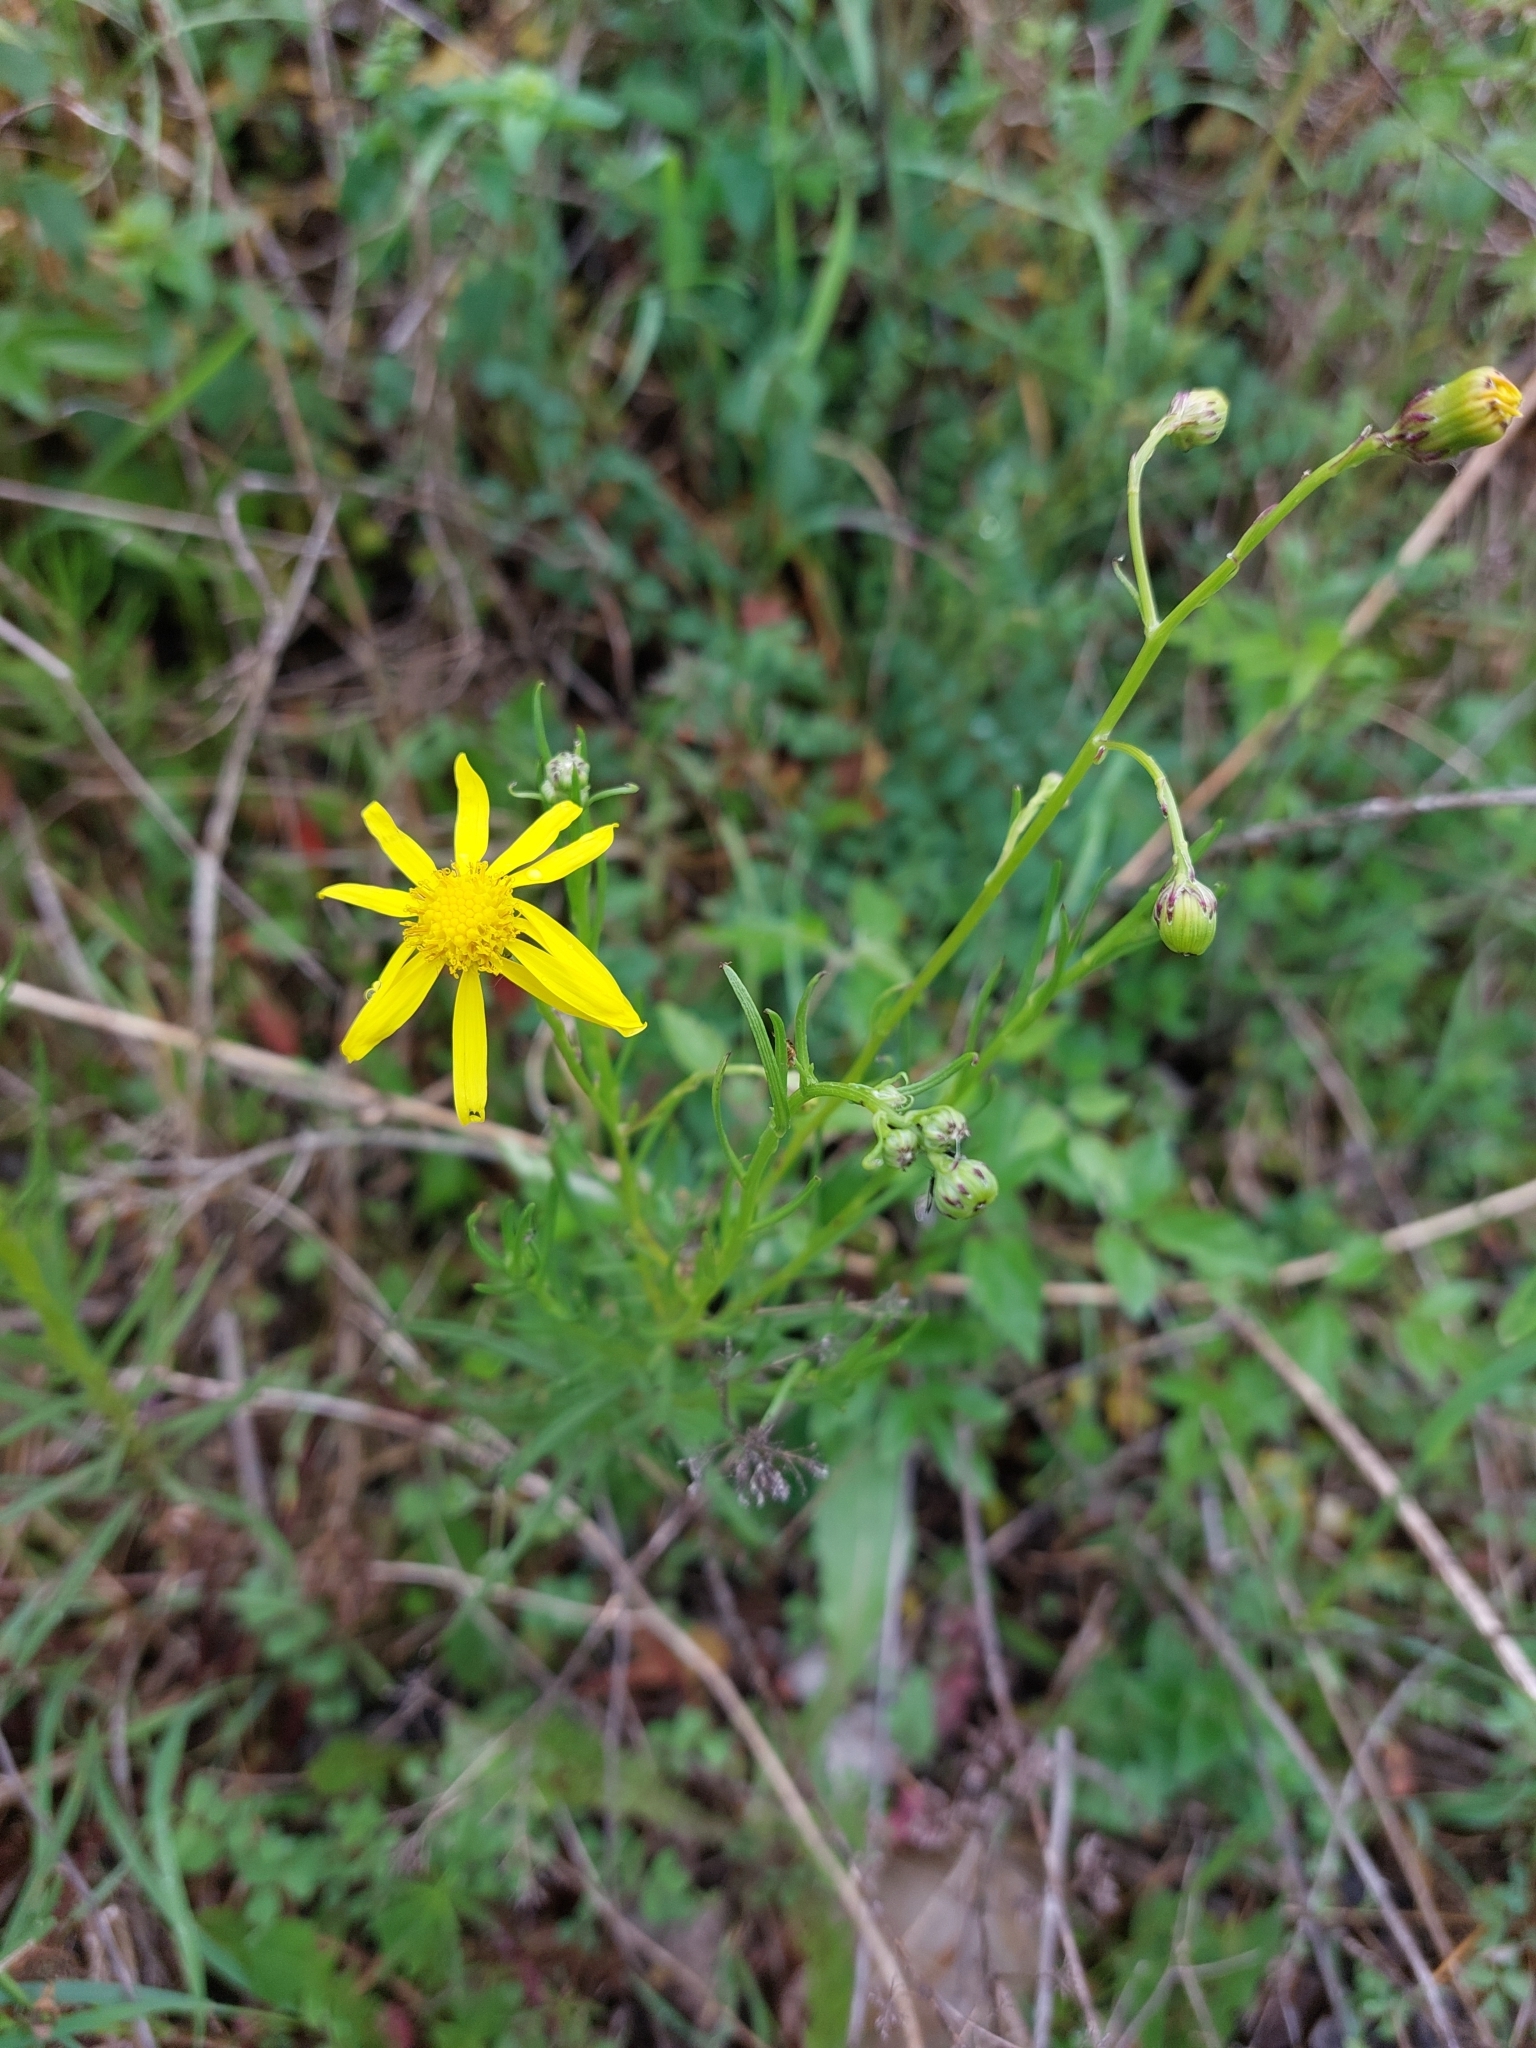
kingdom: Plantae
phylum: Tracheophyta
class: Magnoliopsida
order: Asterales
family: Asteraceae
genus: Senecio
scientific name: Senecio inaequidens
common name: Narrow-leaved ragwort
